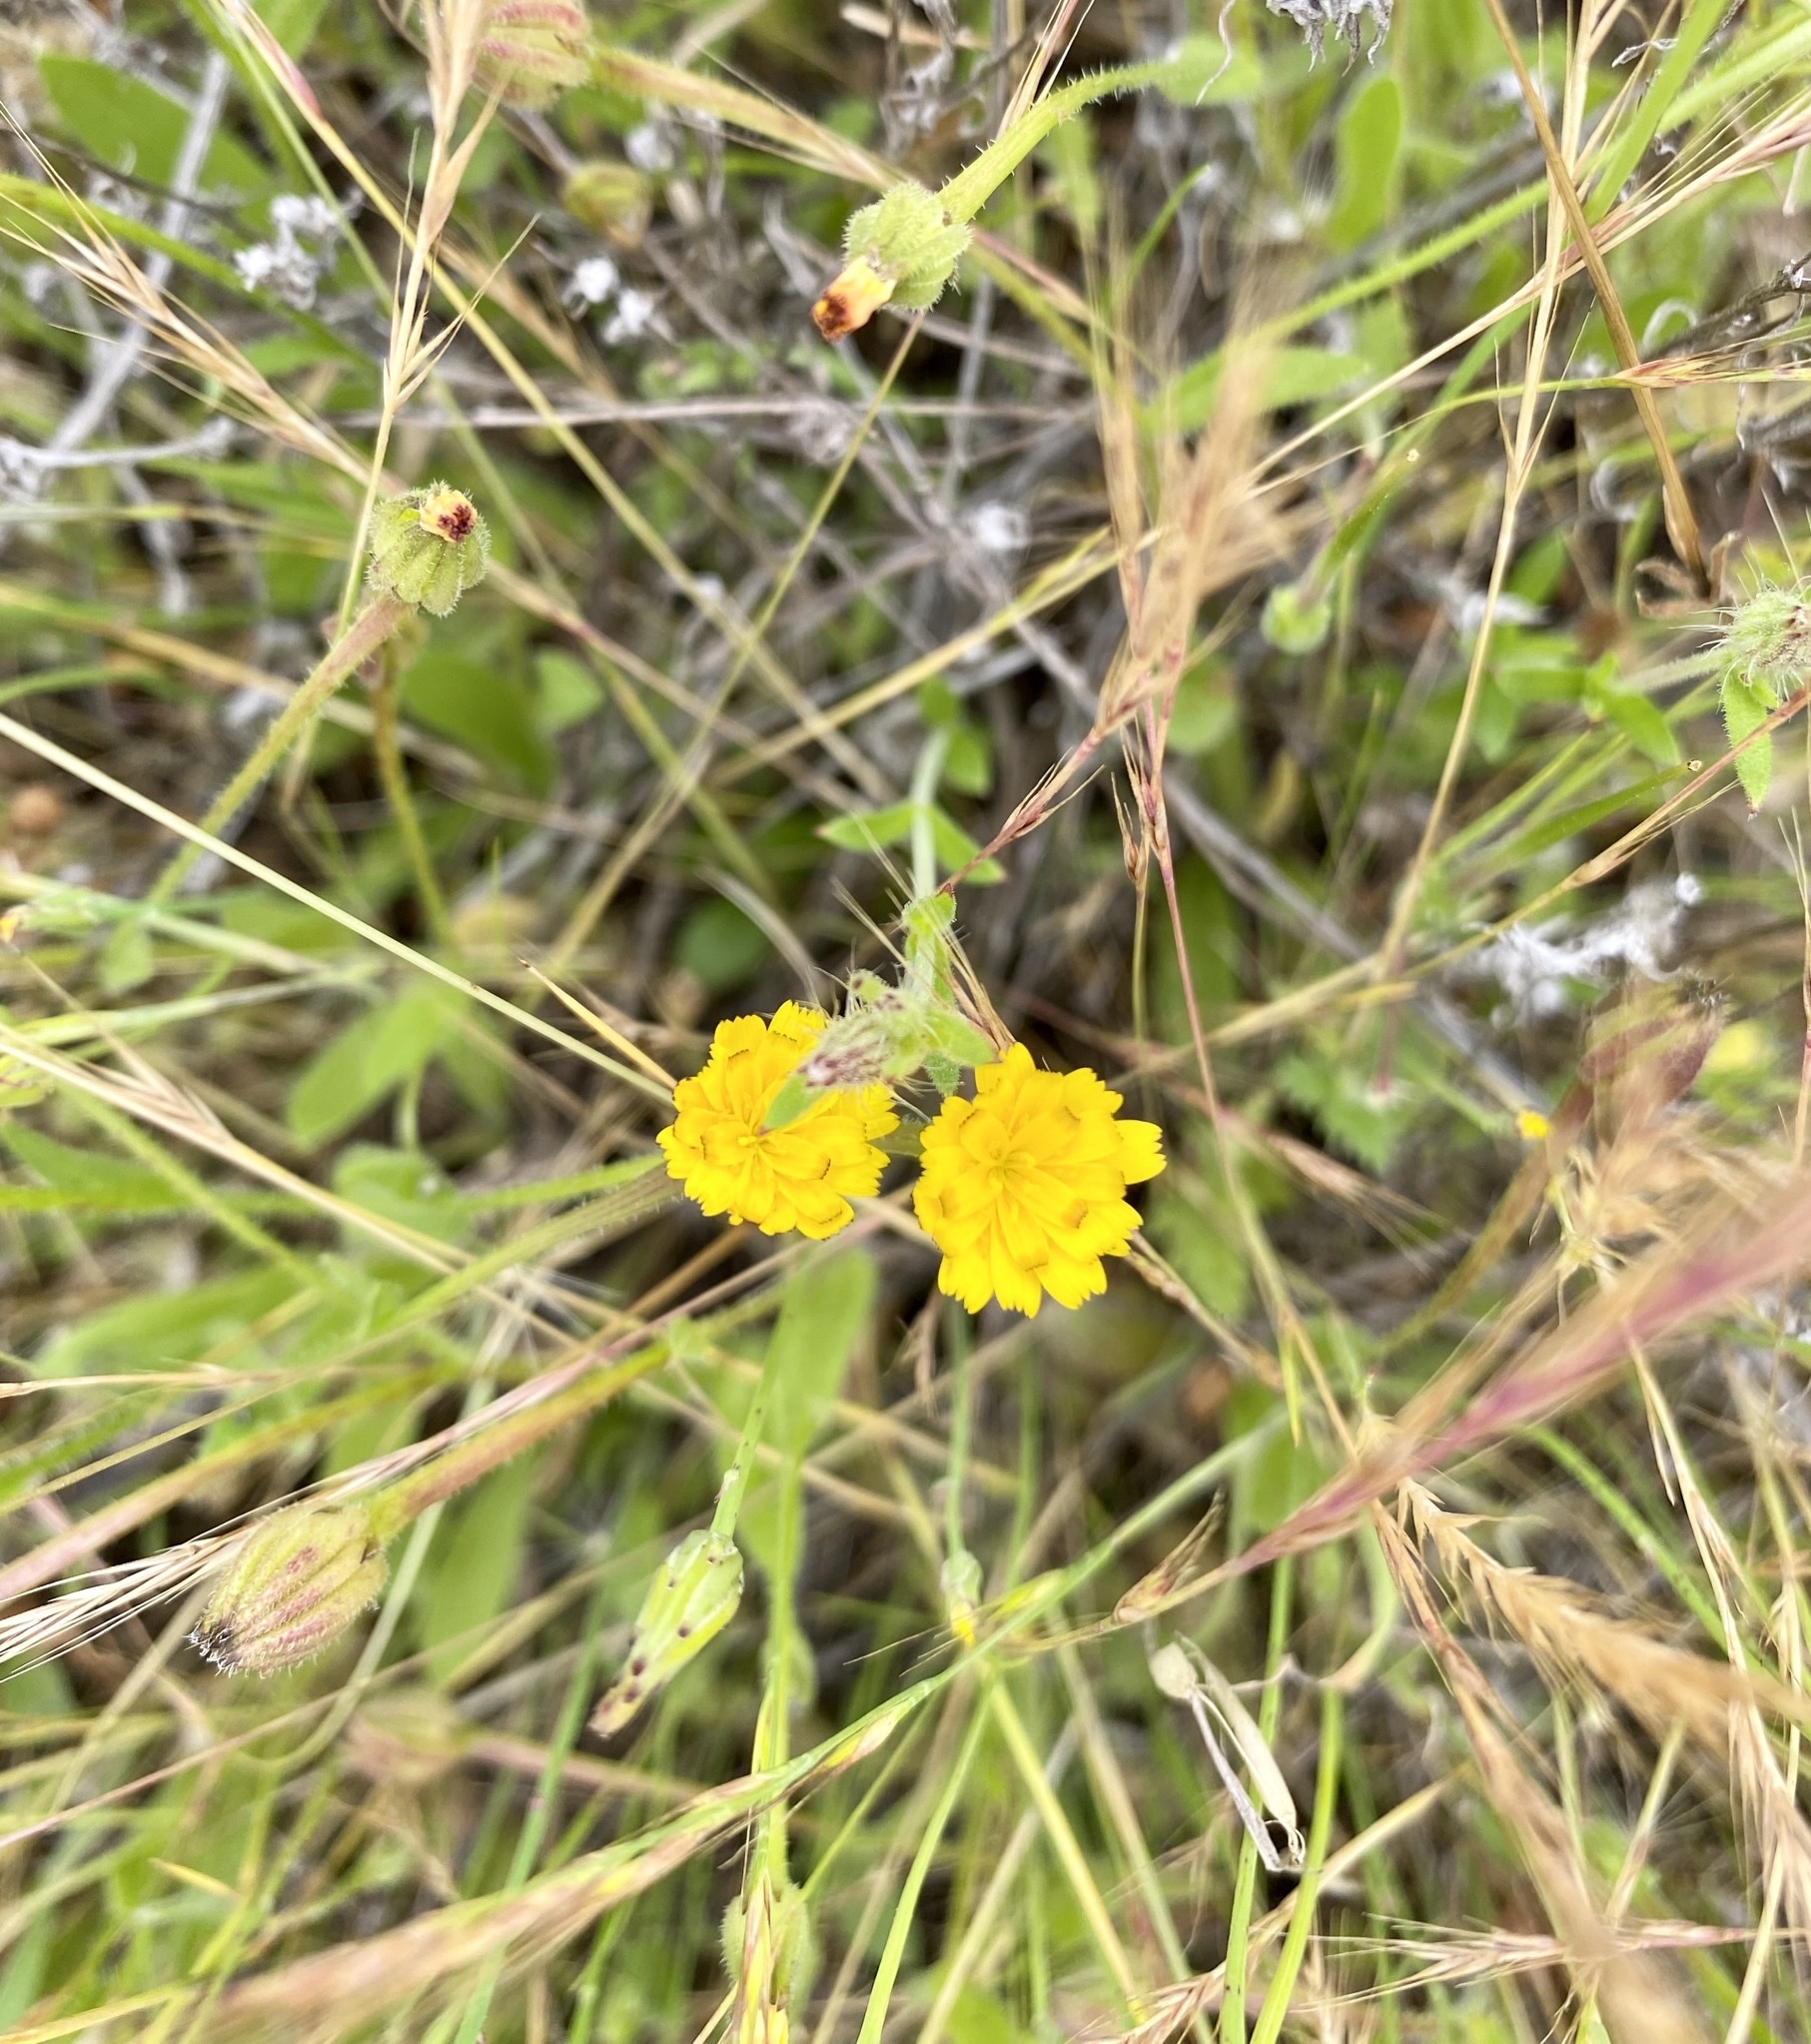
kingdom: Plantae
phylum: Tracheophyta
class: Magnoliopsida
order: Asterales
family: Asteraceae
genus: Hedypnois
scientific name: Hedypnois rhagadioloides
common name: Cretan weed
